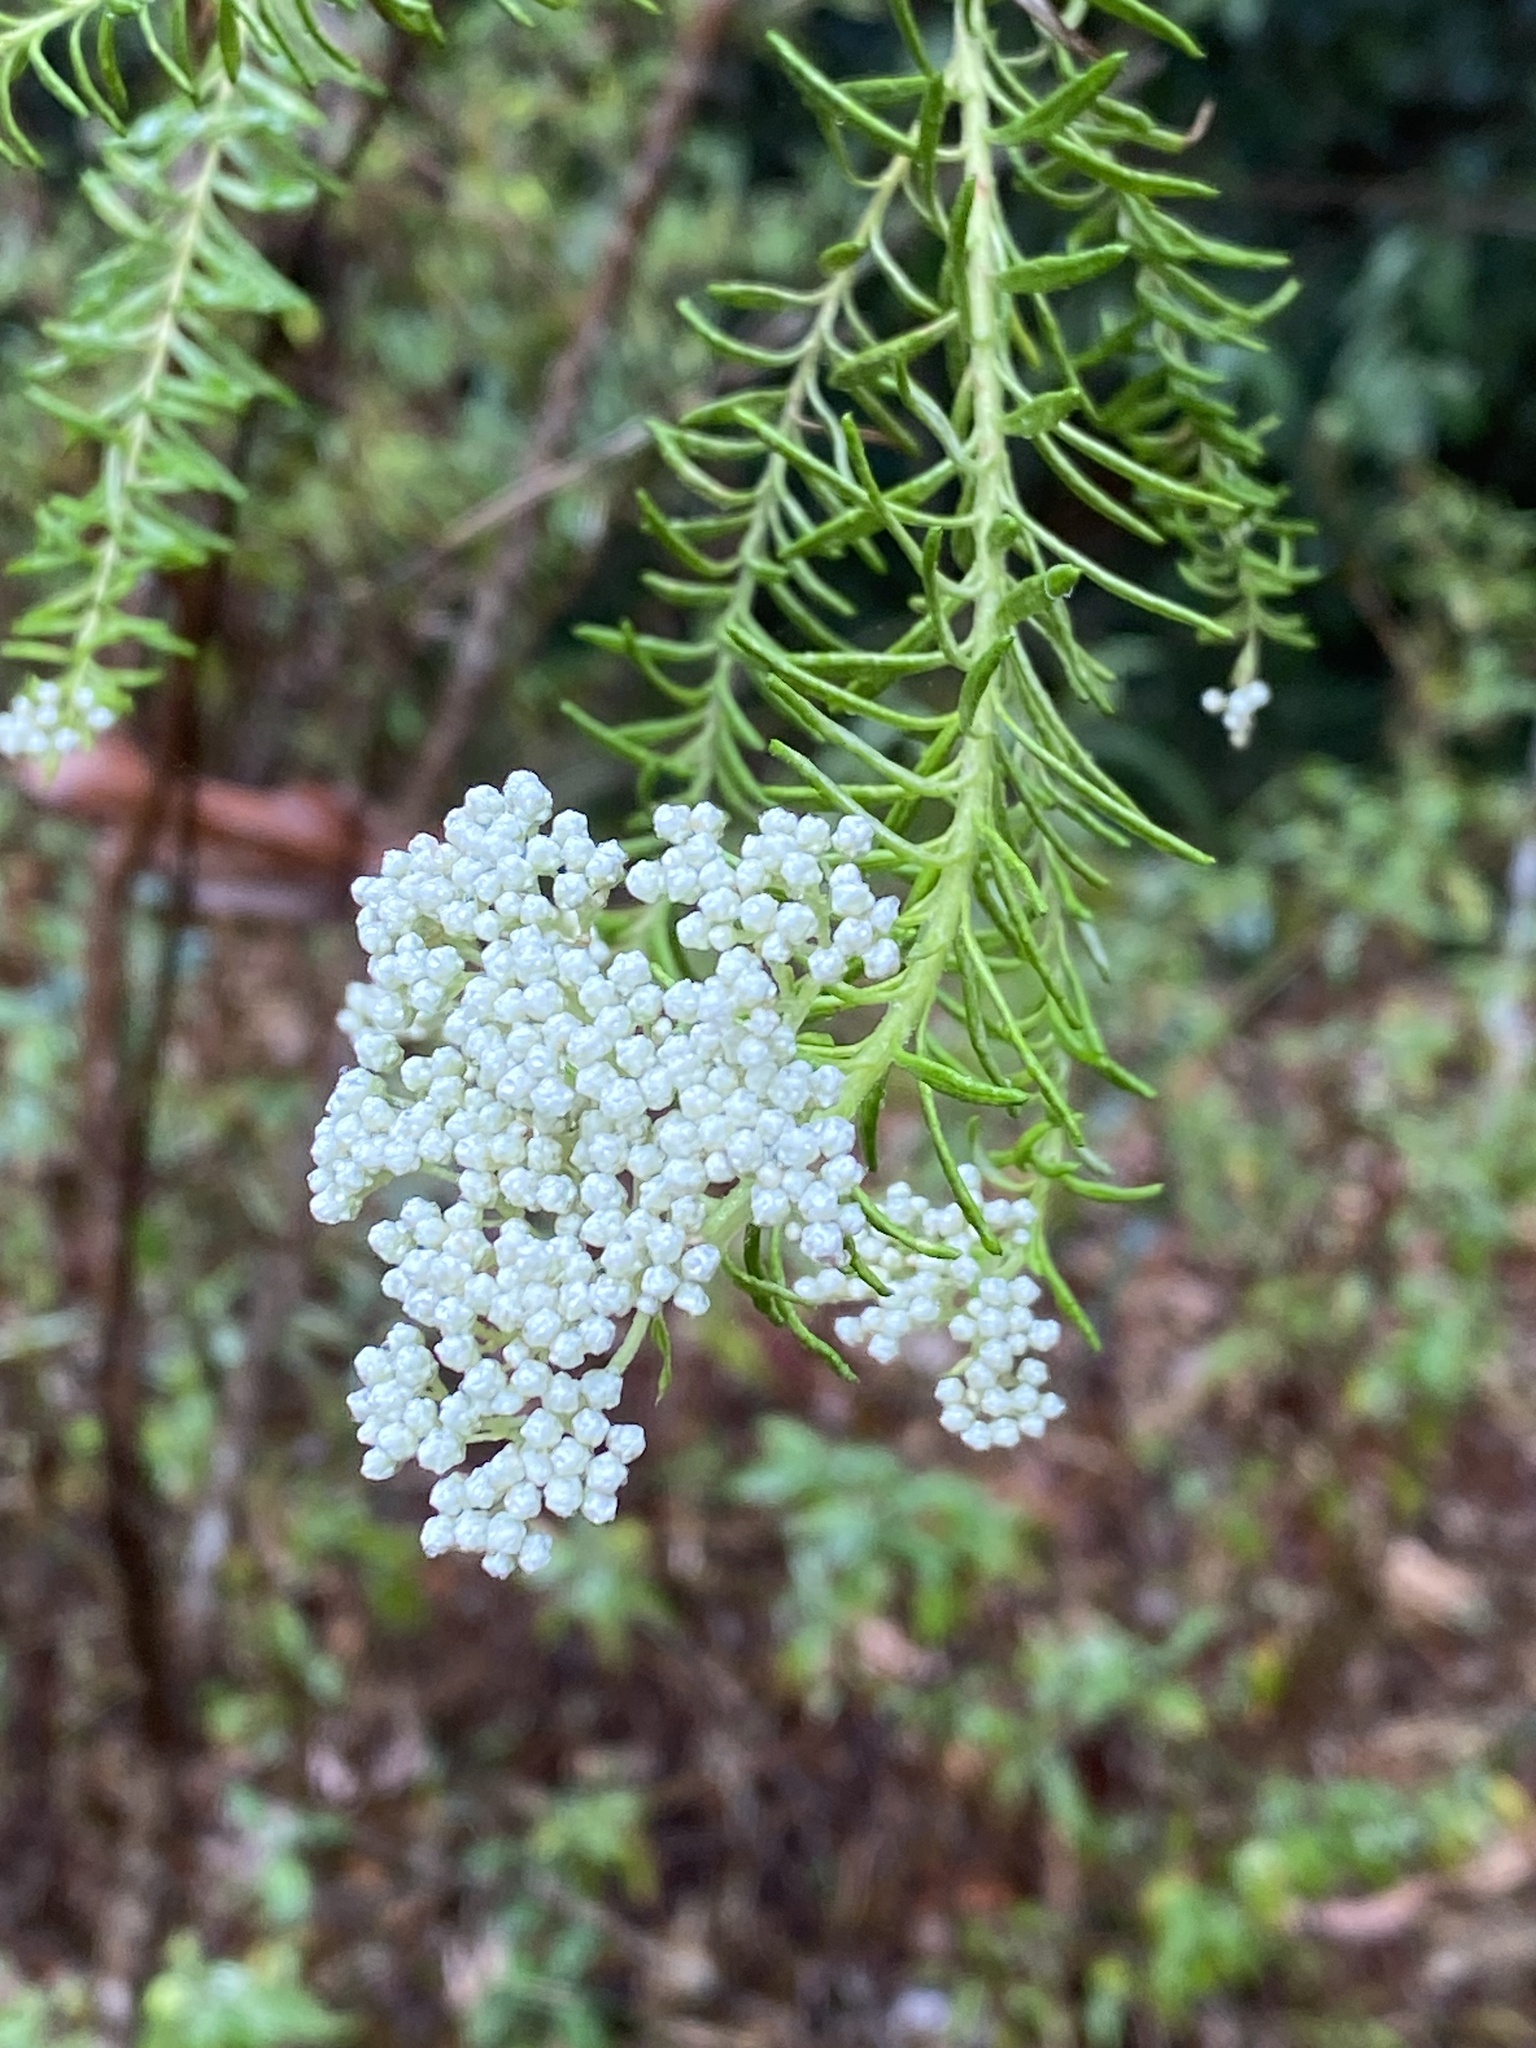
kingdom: Plantae
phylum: Tracheophyta
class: Magnoliopsida
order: Asterales
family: Asteraceae
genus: Ozothamnus
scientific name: Ozothamnus diosmifolius
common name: White-dogwood
